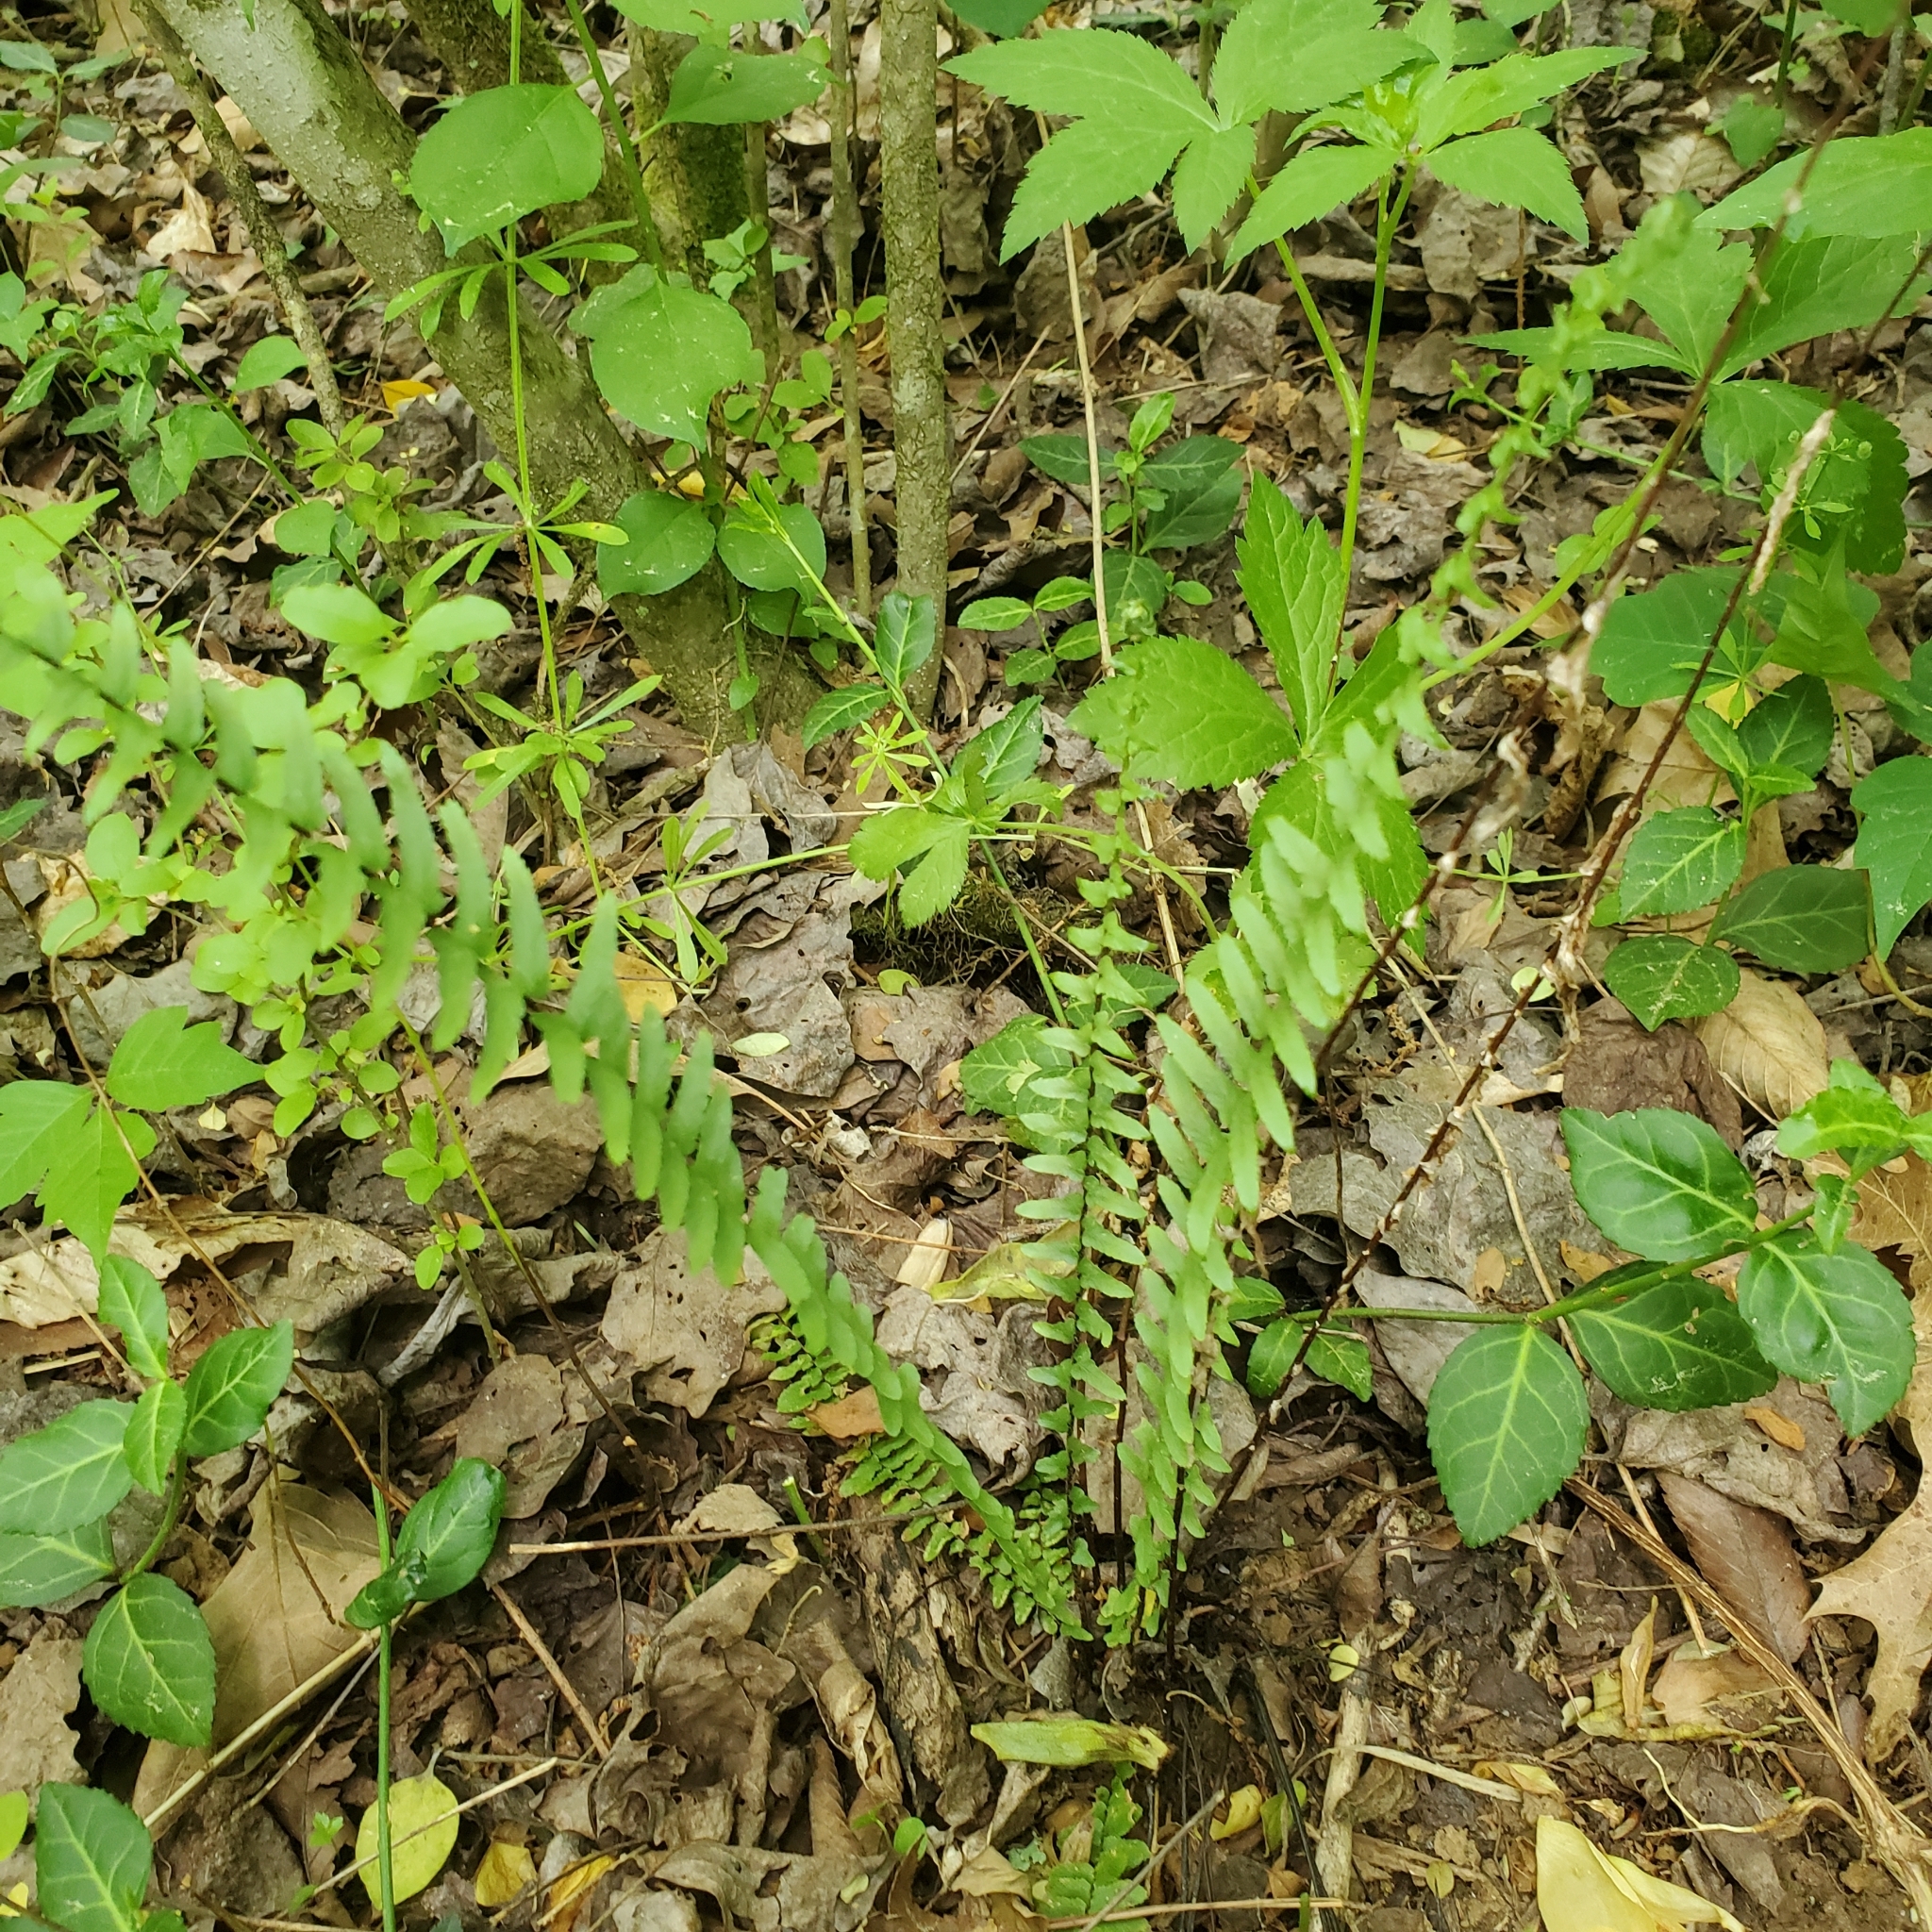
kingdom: Plantae
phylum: Tracheophyta
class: Polypodiopsida
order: Polypodiales
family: Aspleniaceae
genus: Asplenium
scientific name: Asplenium platyneuron
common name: Ebony spleenwort
